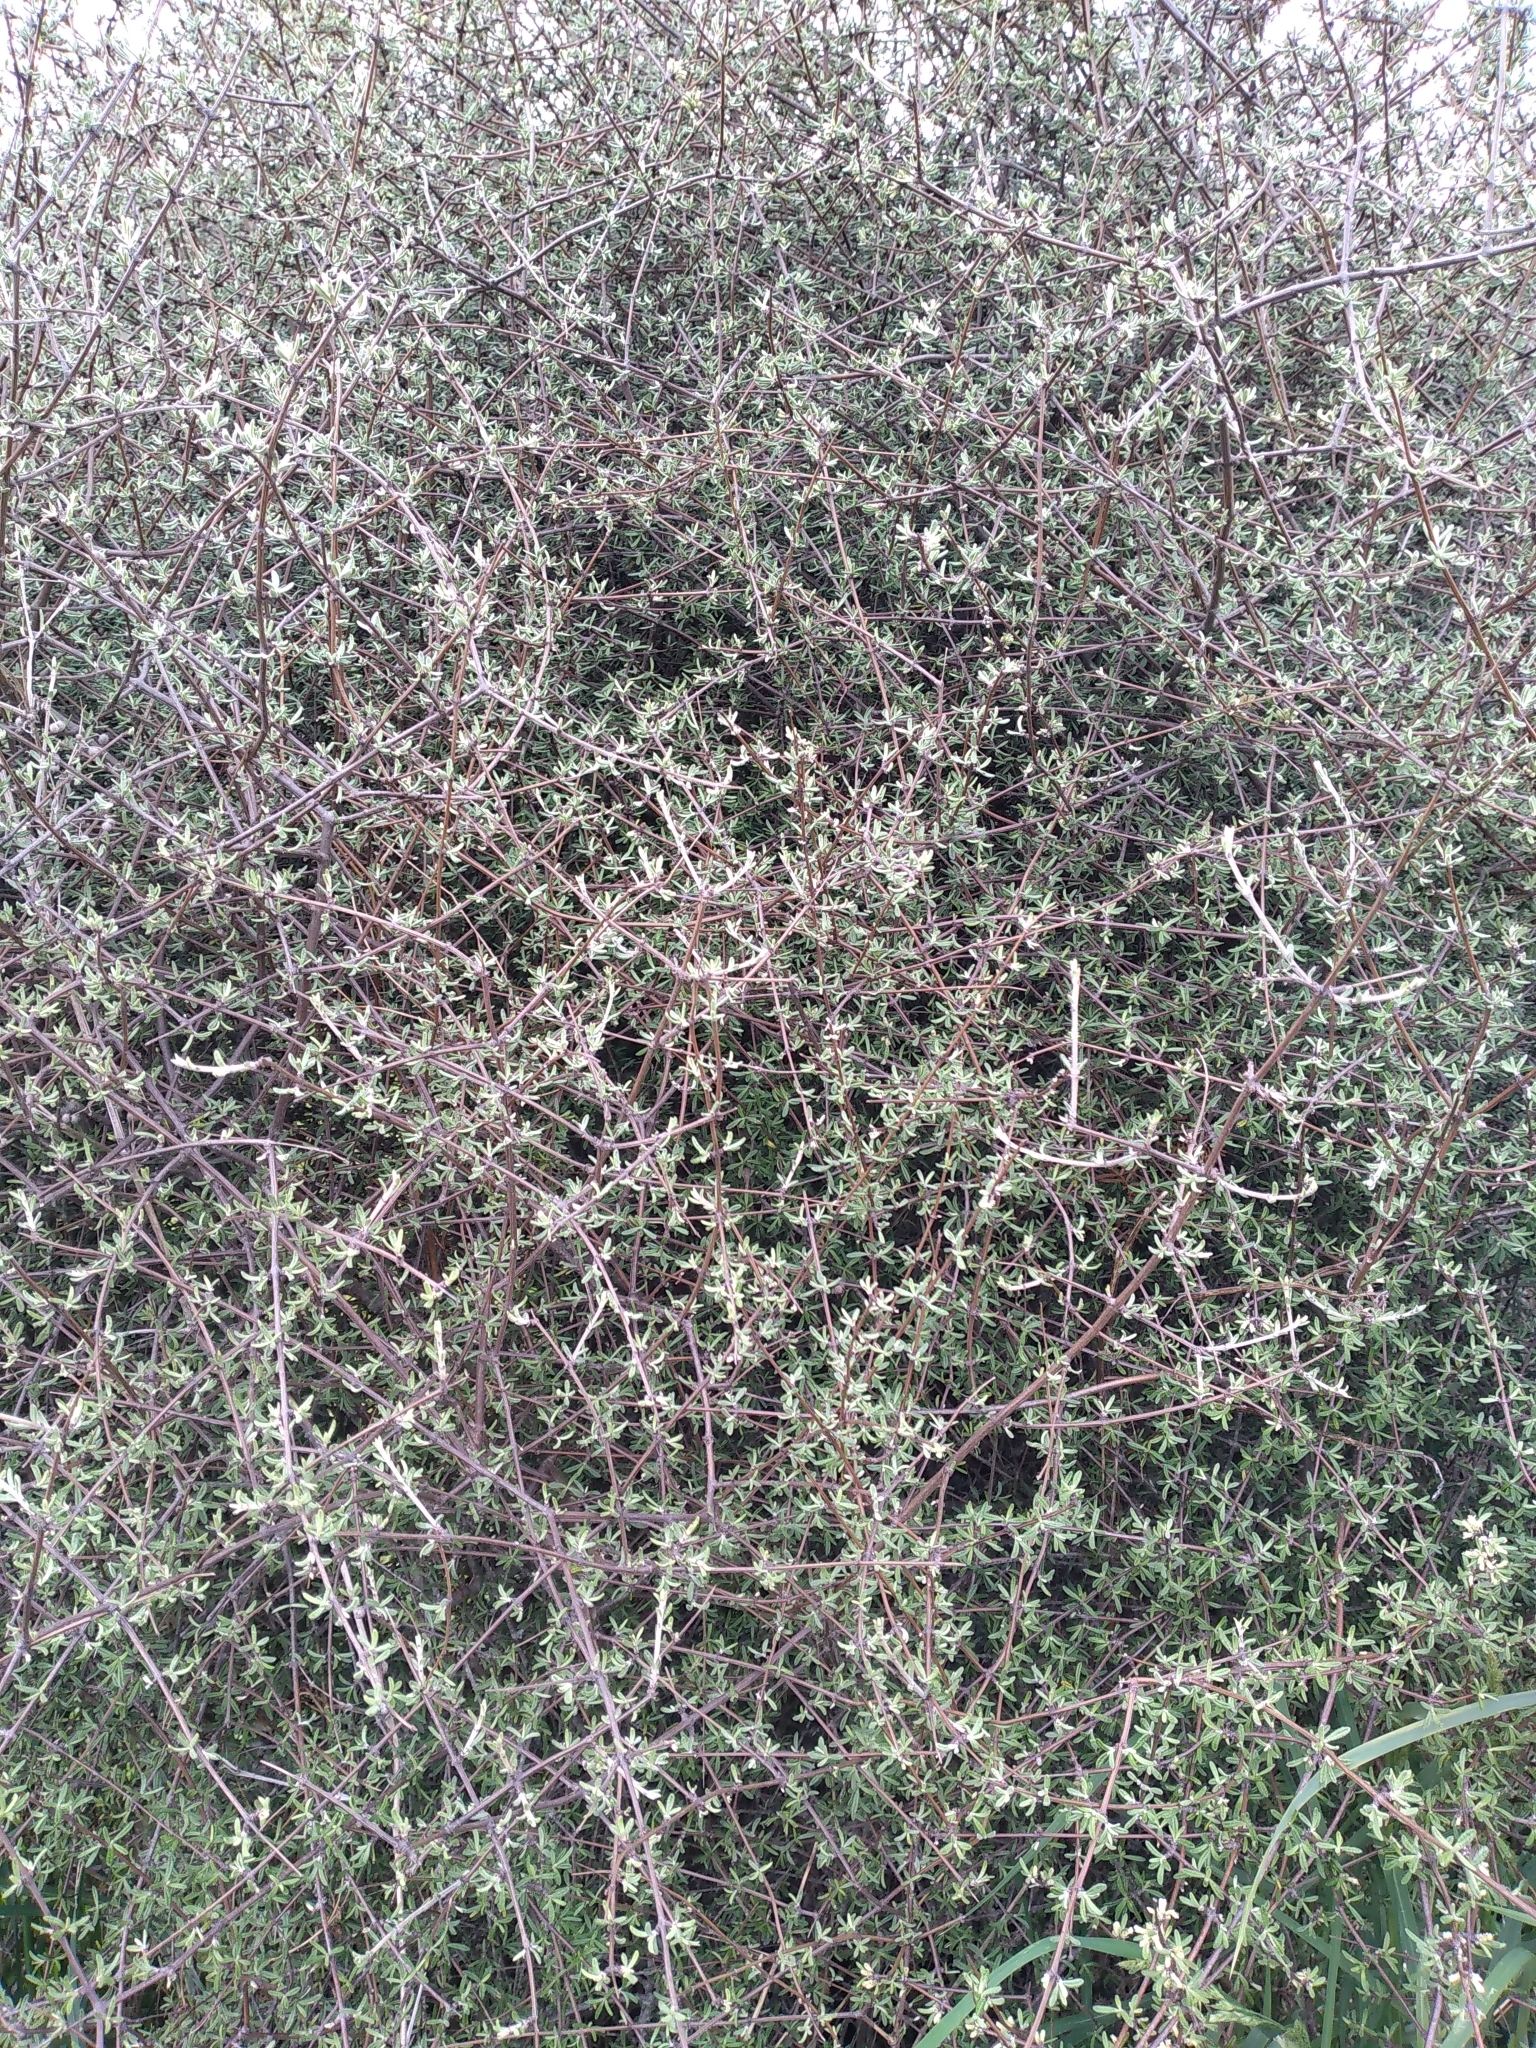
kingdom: Plantae
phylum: Tracheophyta
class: Magnoliopsida
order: Asterales
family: Asteraceae
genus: Olearia
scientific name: Olearia bullata
